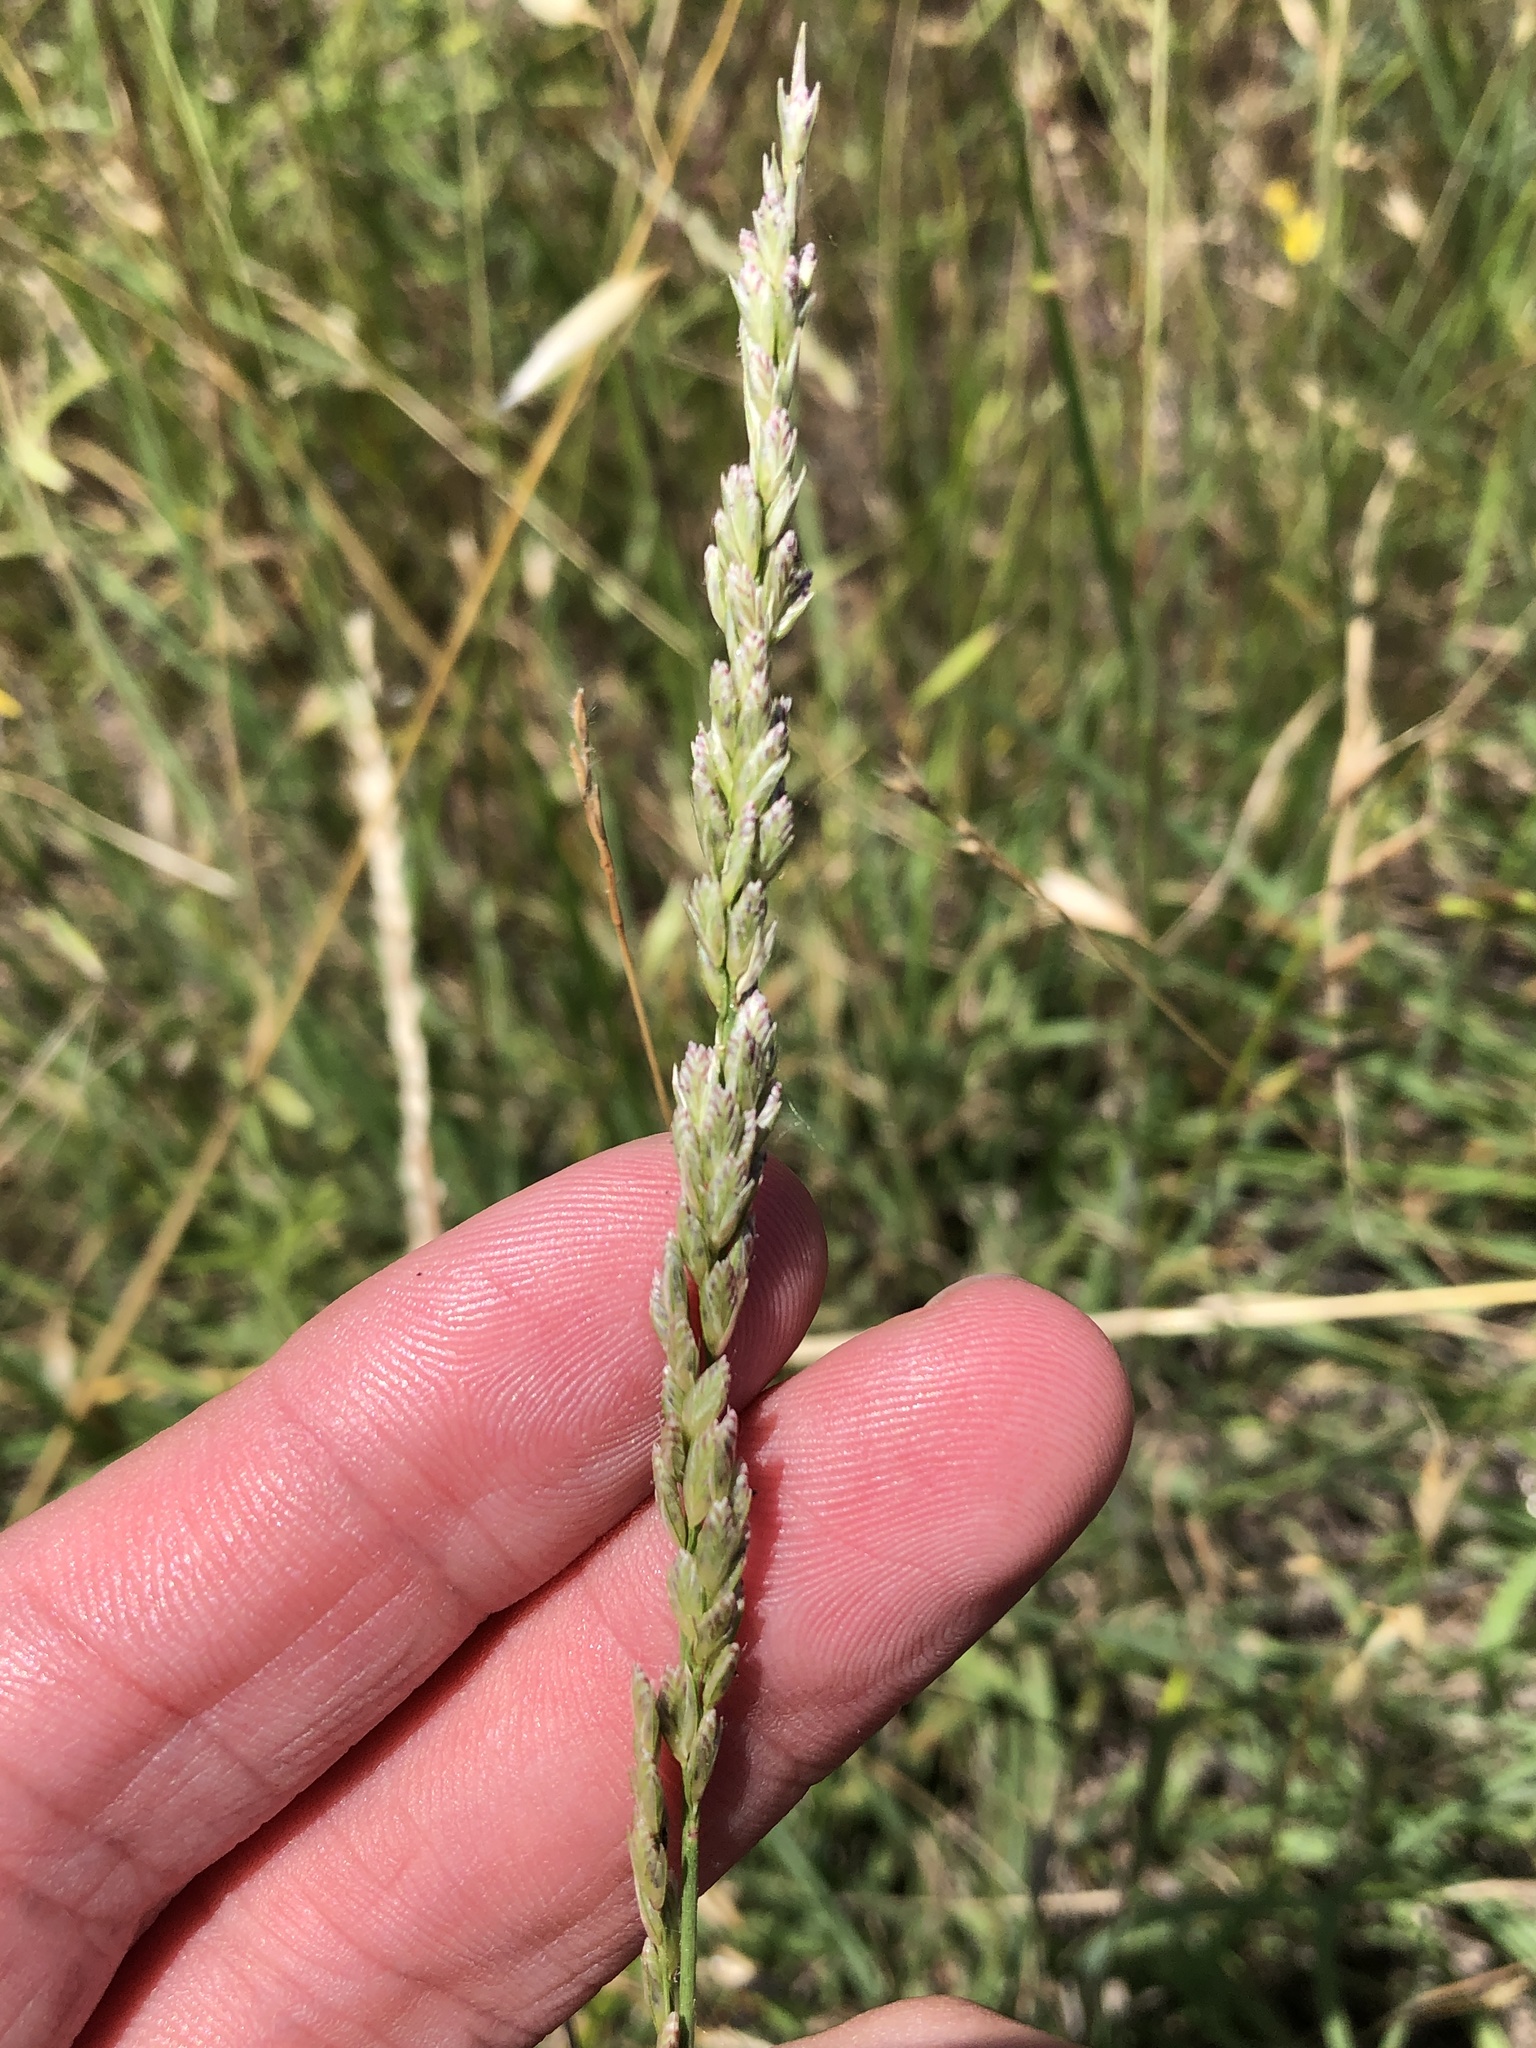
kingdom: Plantae
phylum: Tracheophyta
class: Liliopsida
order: Poales
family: Poaceae
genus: Tridens
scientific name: Tridens albescens
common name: White tridens
